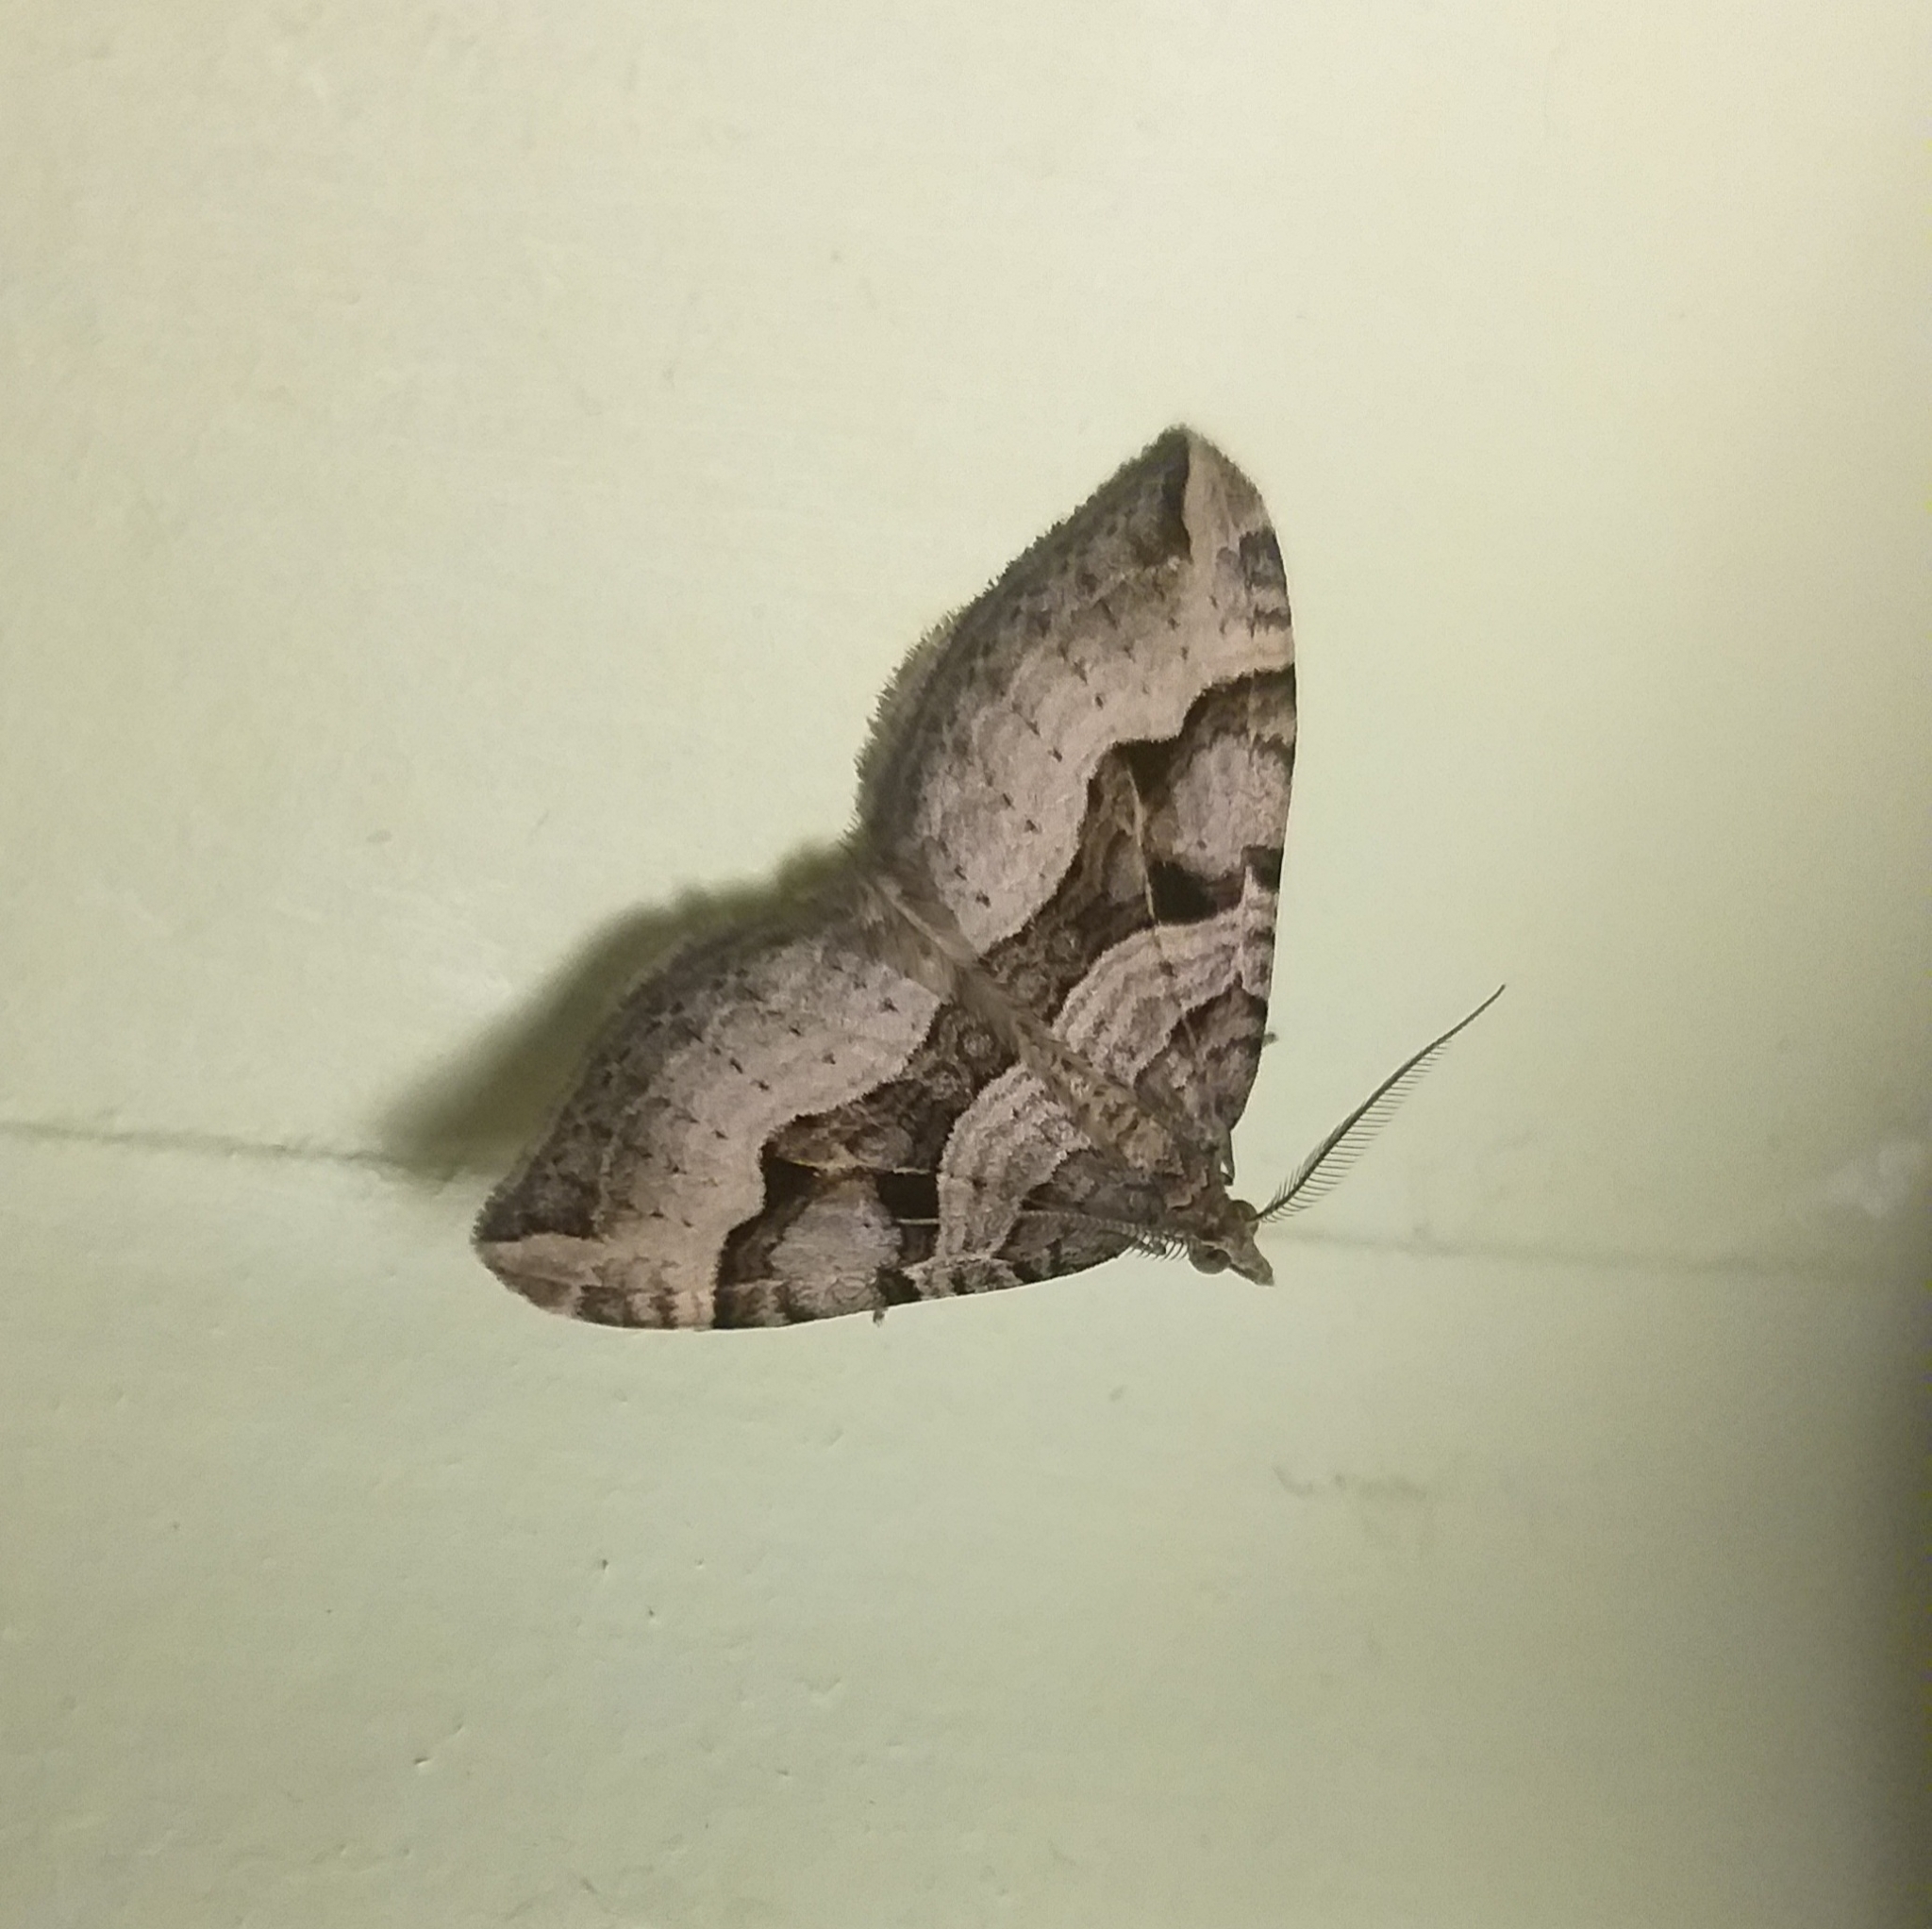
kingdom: Animalia
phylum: Arthropoda
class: Insecta
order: Lepidoptera
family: Geometridae
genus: Xanthorhoe
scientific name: Xanthorhoe semifissata
